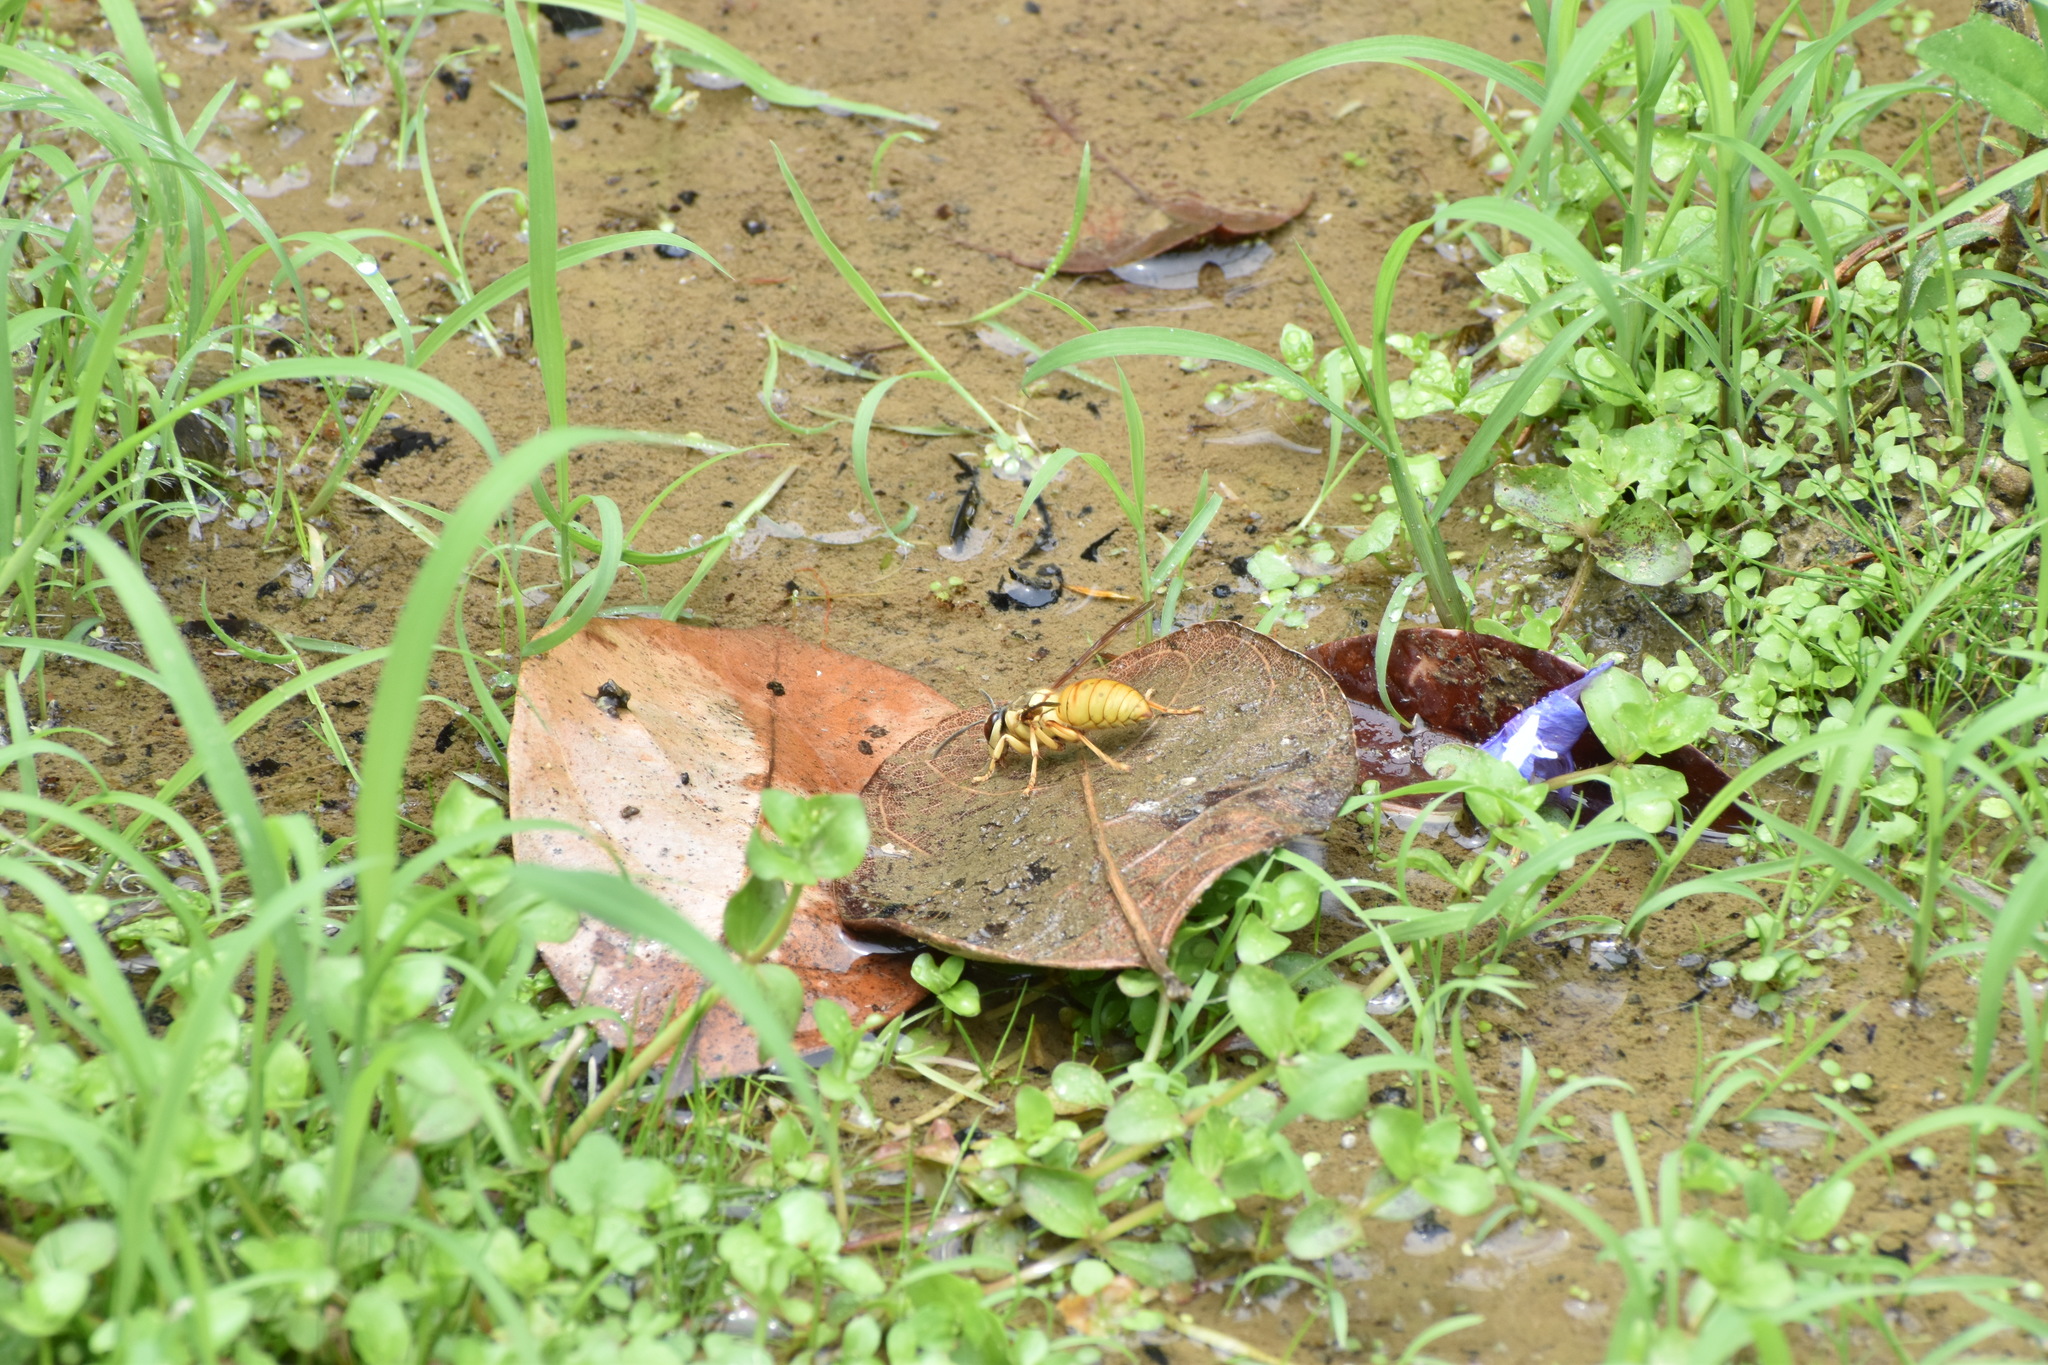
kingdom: Animalia
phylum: Arthropoda
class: Insecta
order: Hymenoptera
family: Vespidae
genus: Vespa
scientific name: Vespa bicolor
